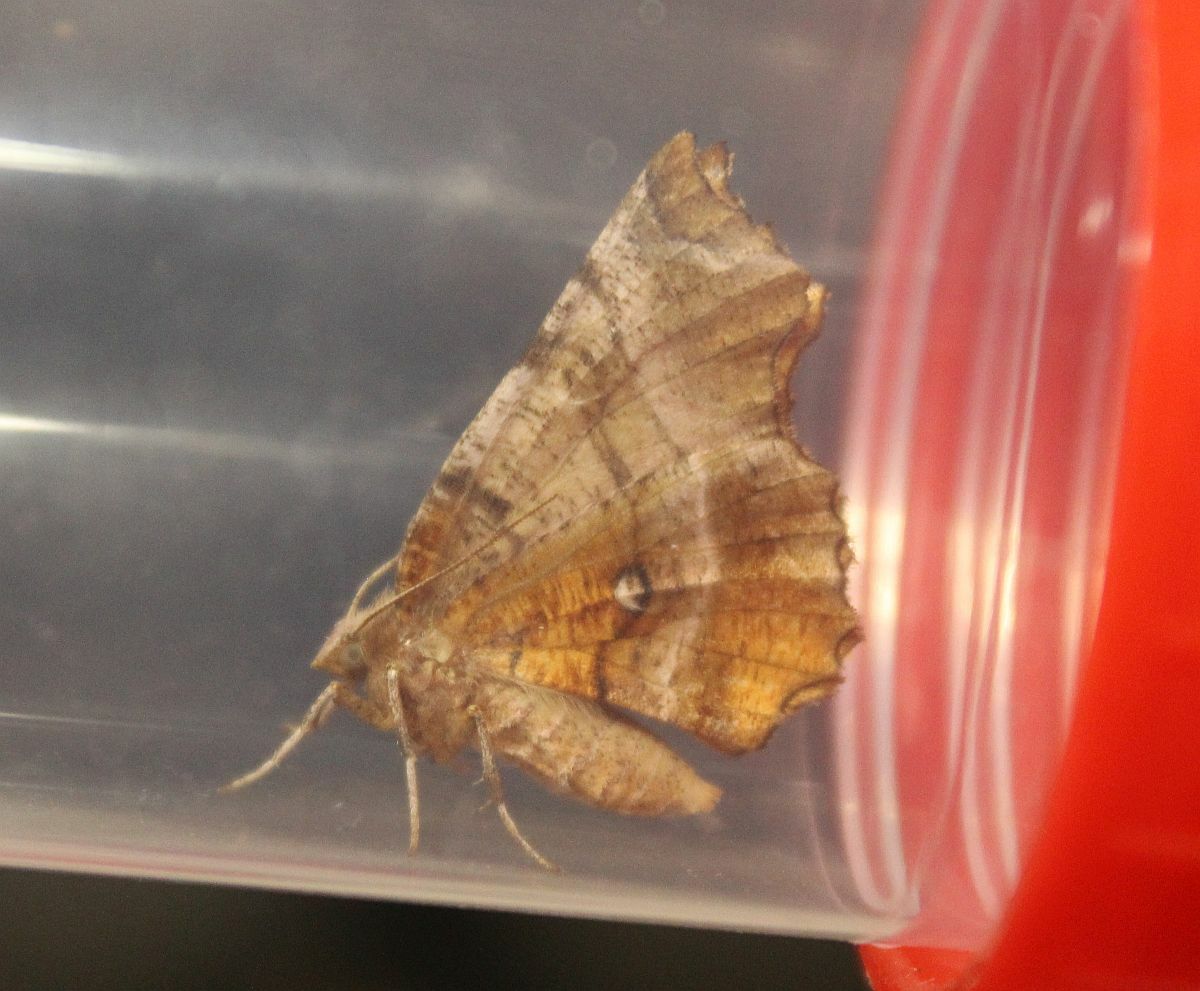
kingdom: Animalia
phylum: Arthropoda
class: Insecta
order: Lepidoptera
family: Geometridae
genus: Selenia
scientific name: Selenia dentaria
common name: Early thorn
